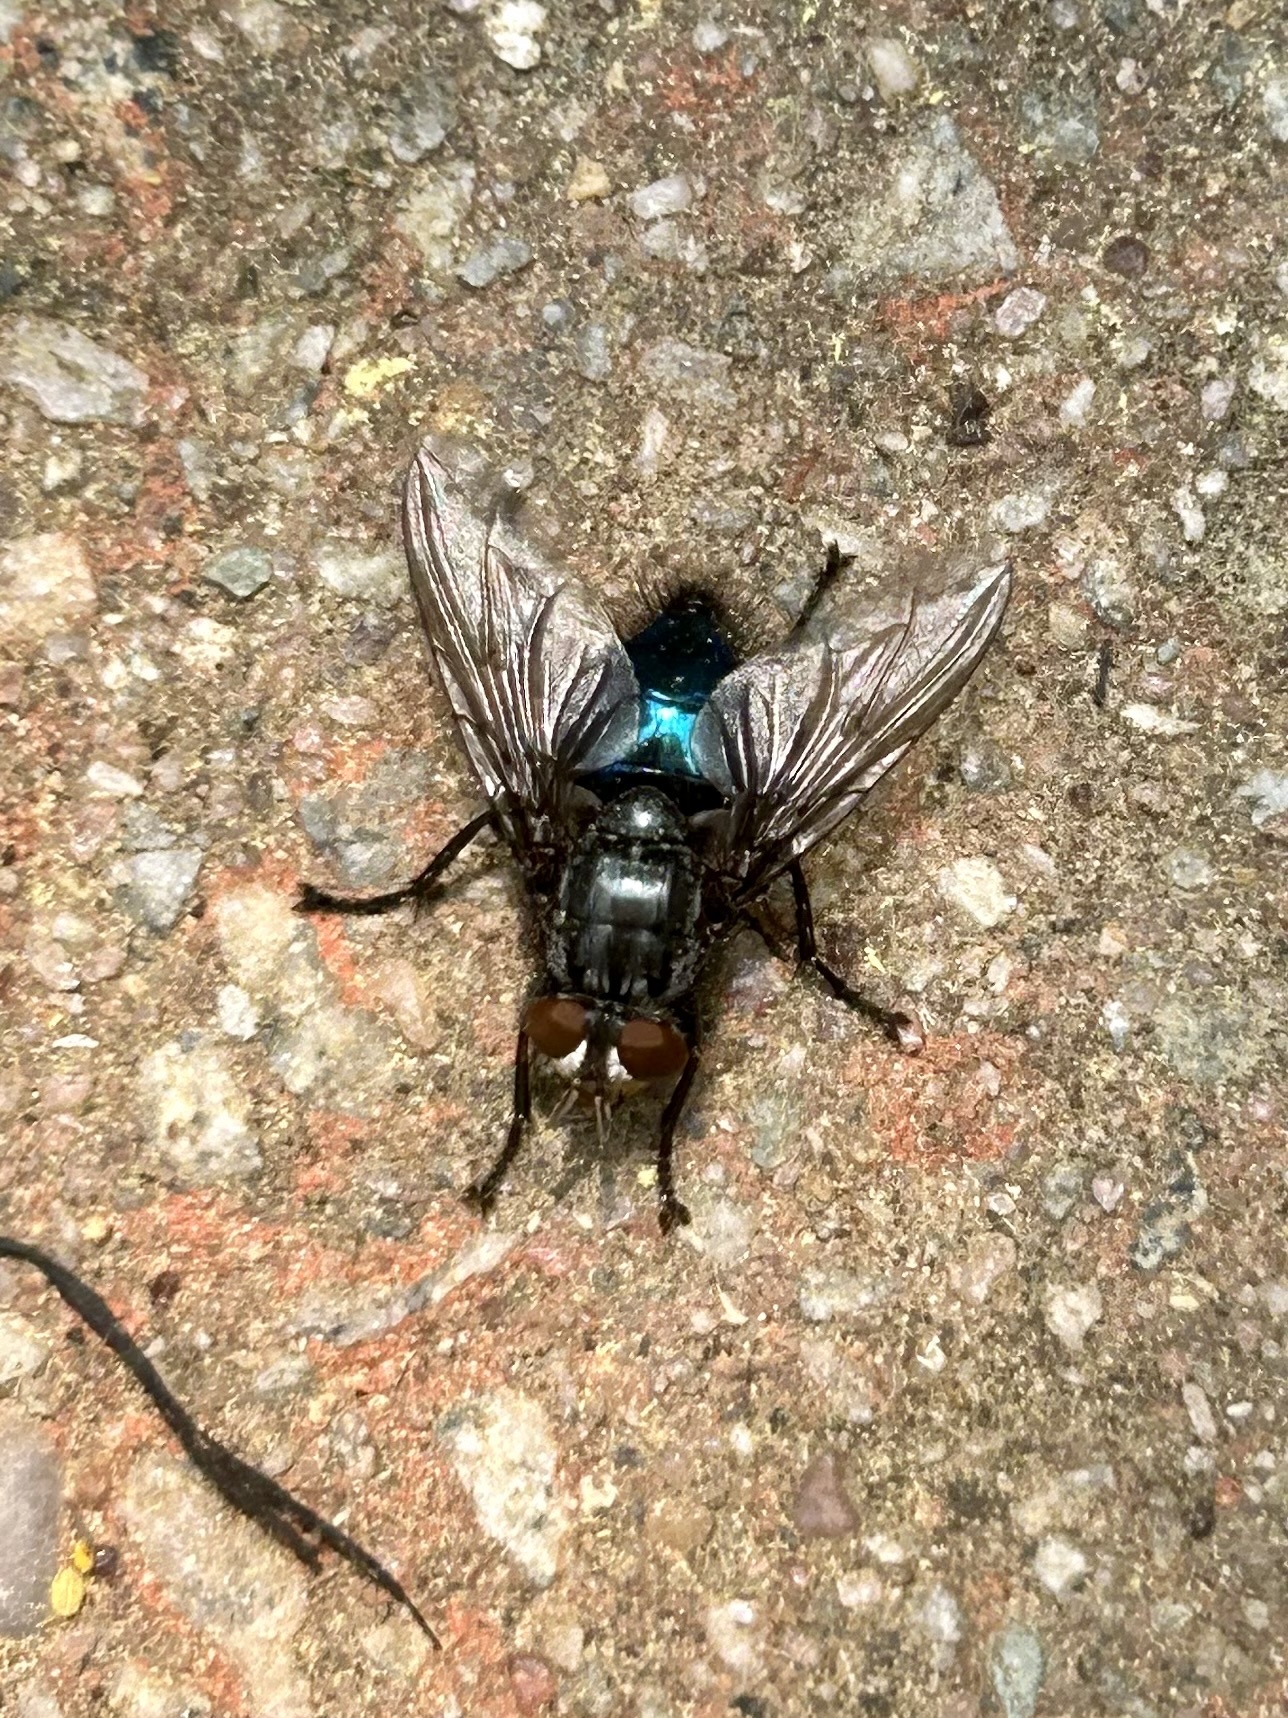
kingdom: Animalia
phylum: Arthropoda
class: Insecta
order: Diptera
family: Calliphoridae
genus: Cynomya
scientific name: Cynomya cadaverina
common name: Shiny blue bottle fly
